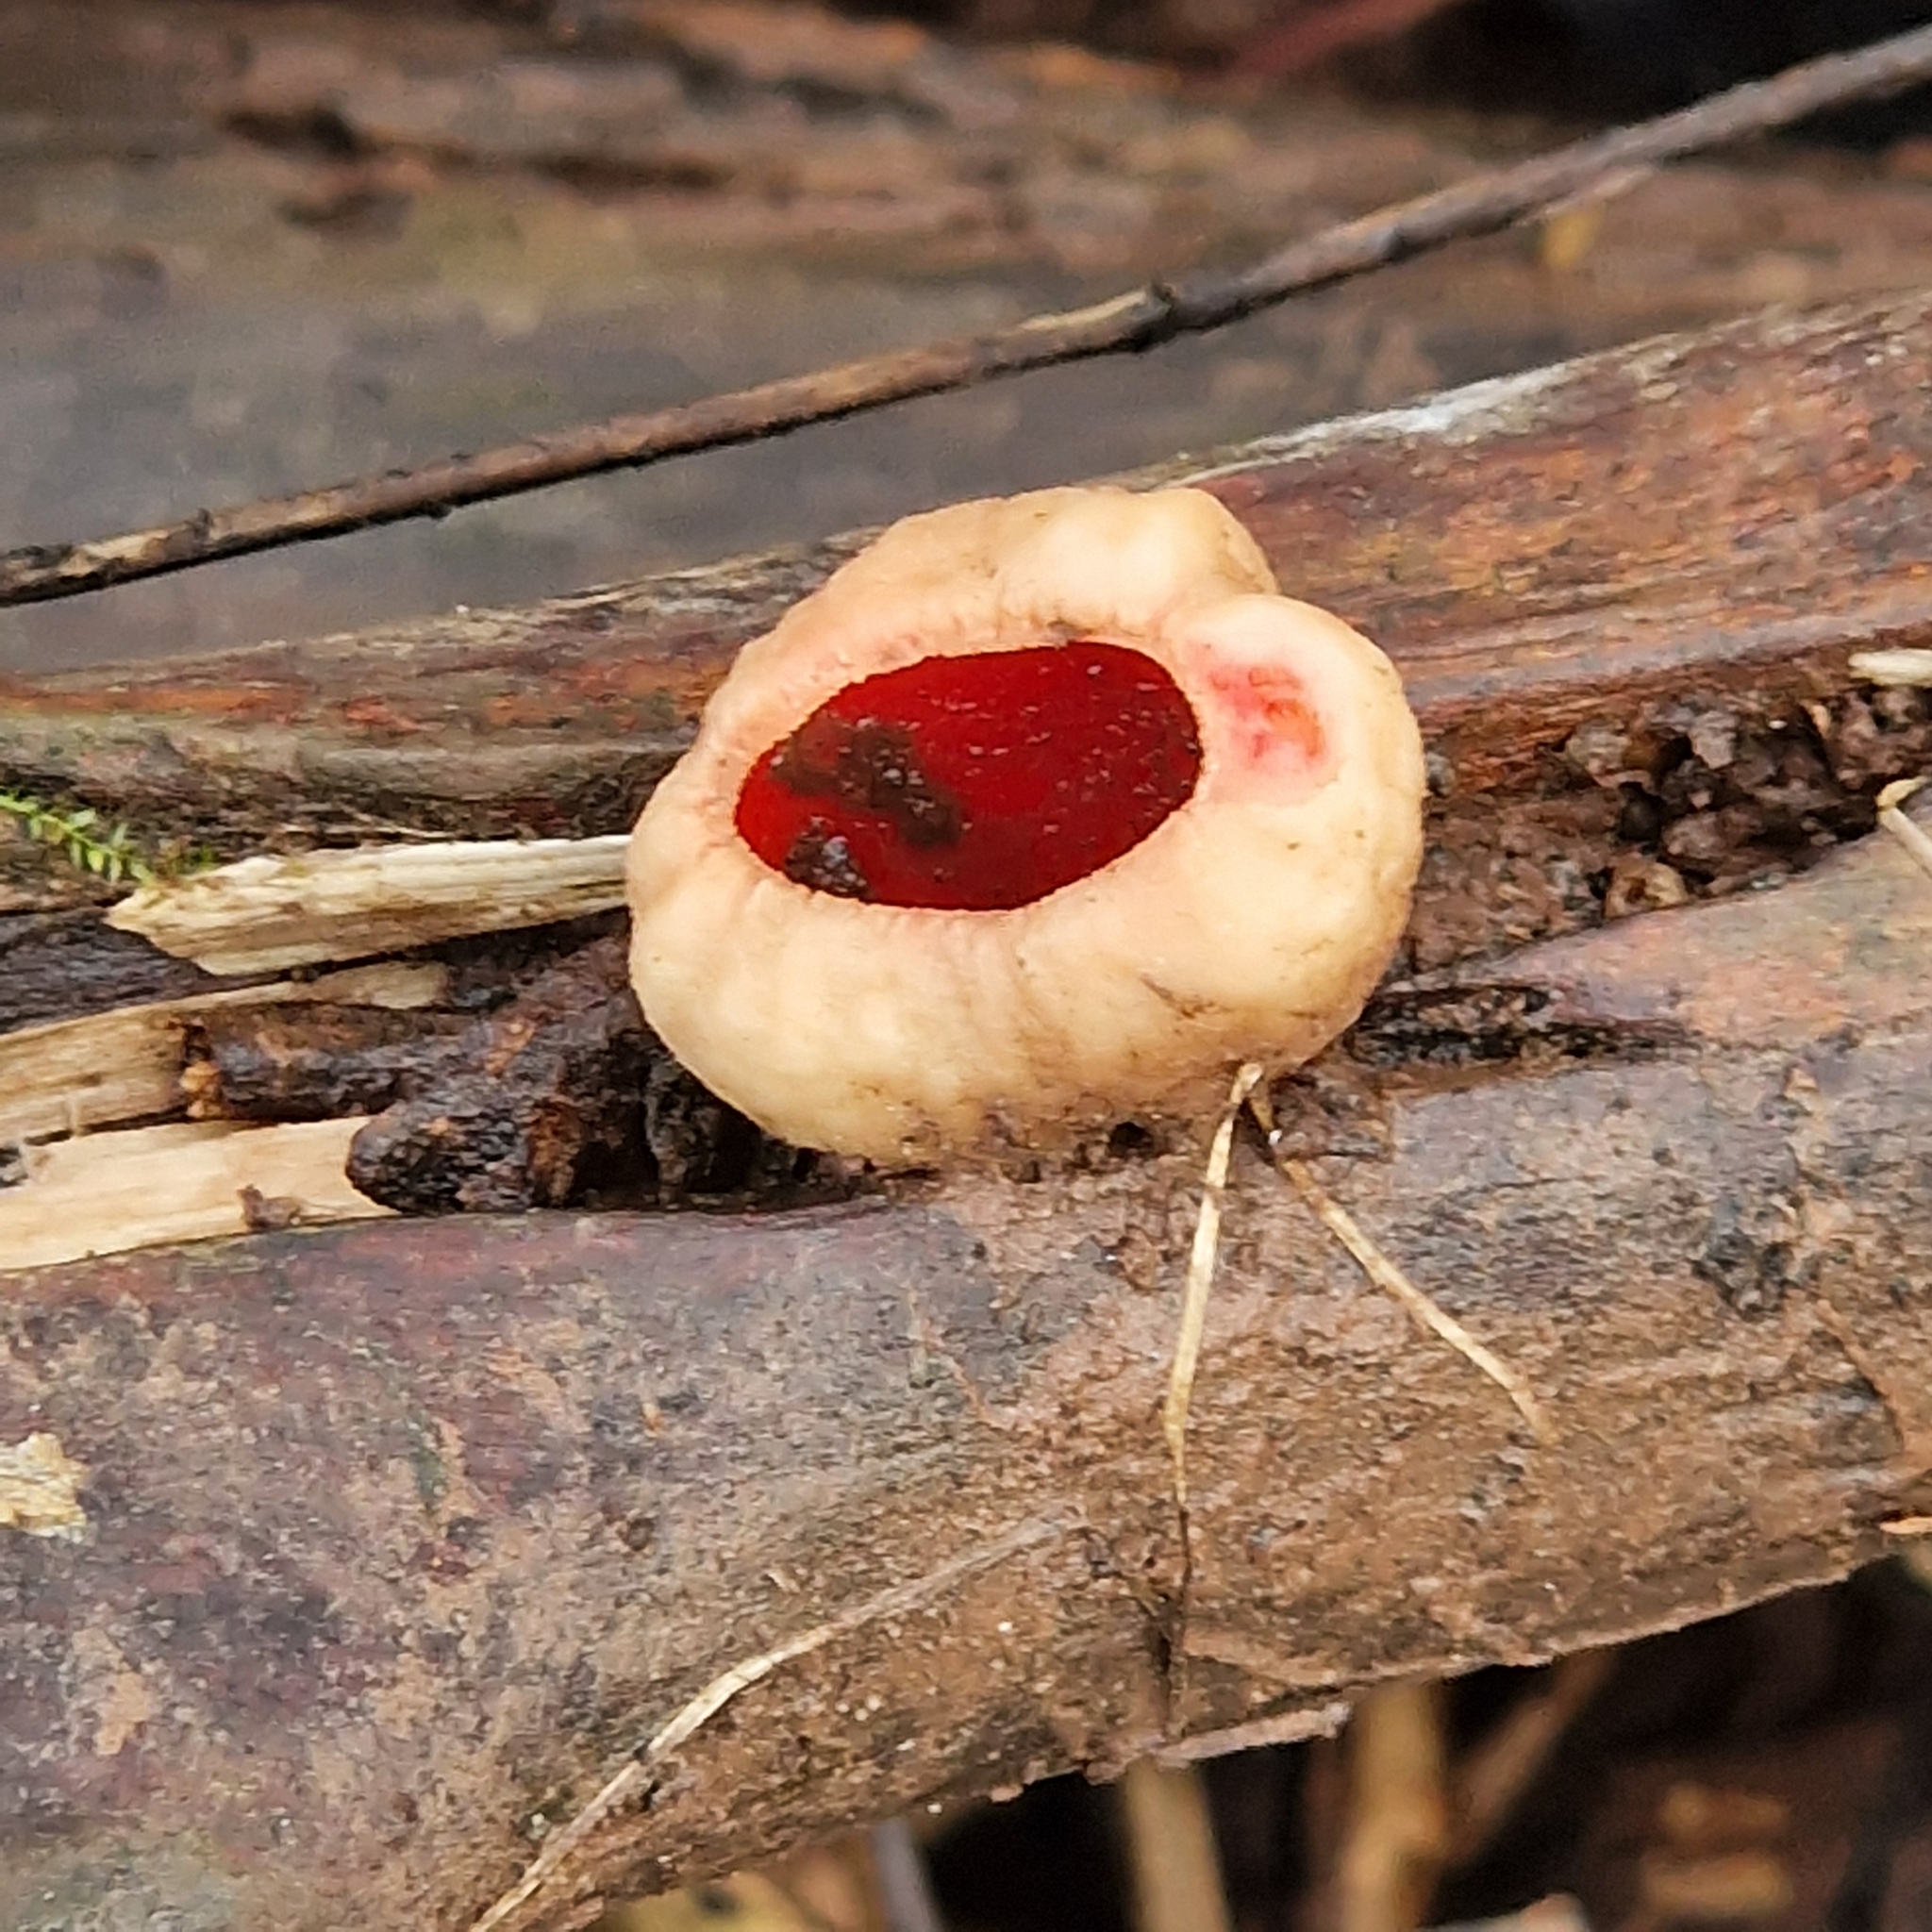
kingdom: Fungi
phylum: Ascomycota
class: Pezizomycetes
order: Pezizales
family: Sarcoscyphaceae
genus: Sarcoscypha
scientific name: Sarcoscypha
